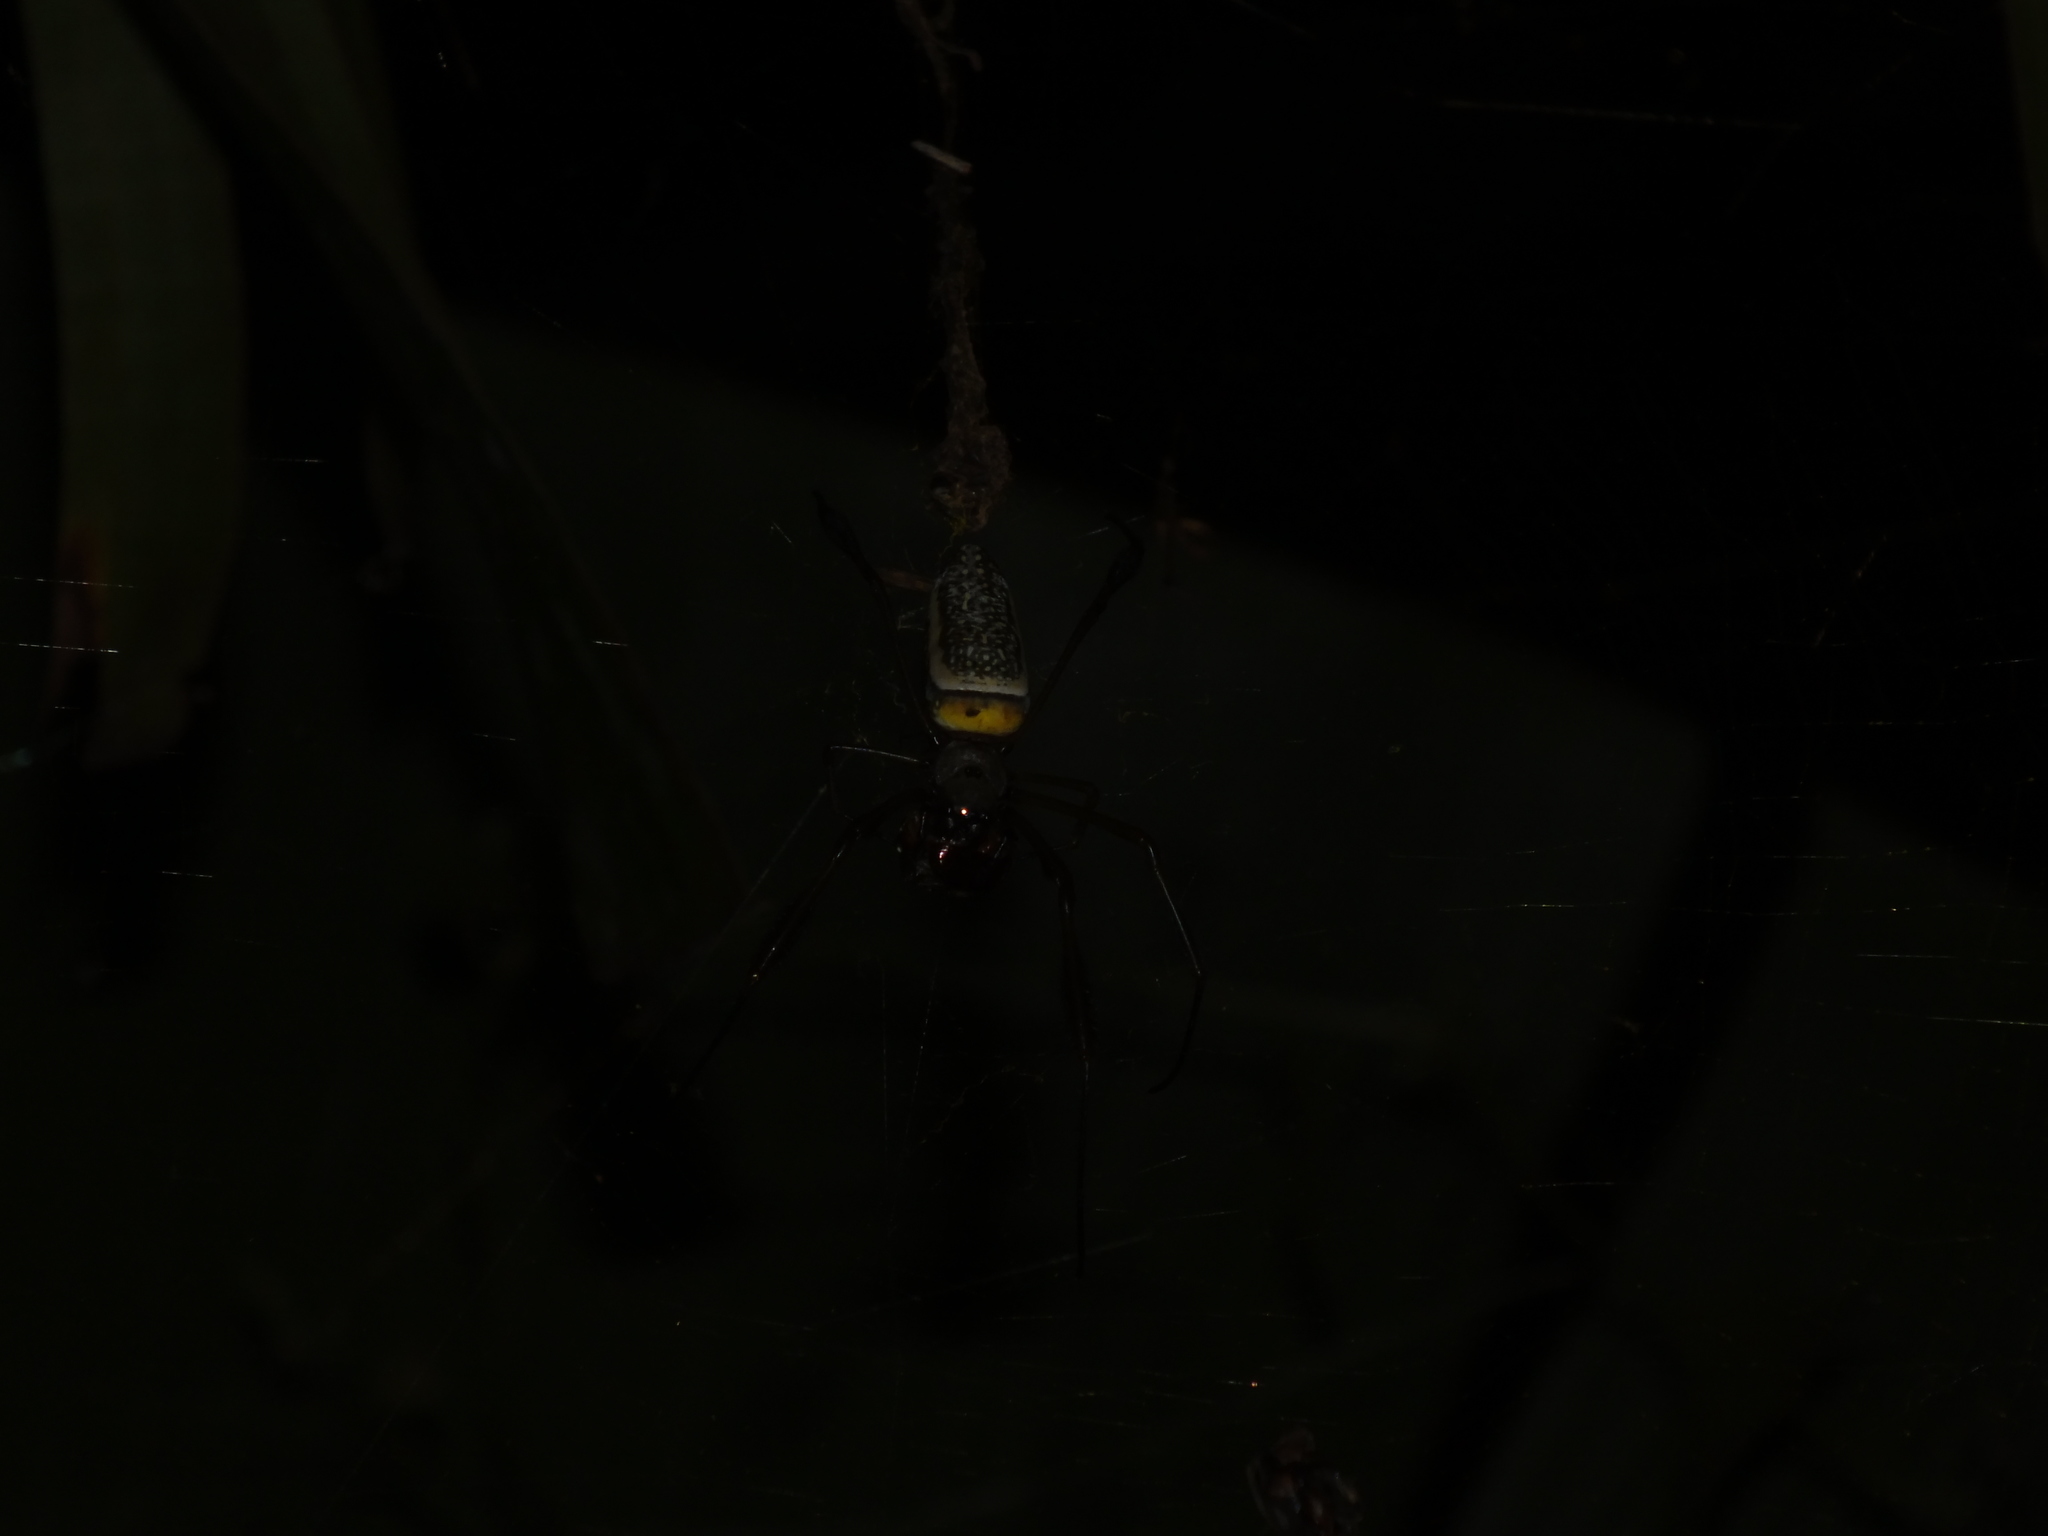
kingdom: Animalia
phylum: Arthropoda
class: Arachnida
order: Araneae
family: Araneidae
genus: Trichonephila
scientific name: Trichonephila clavipes
